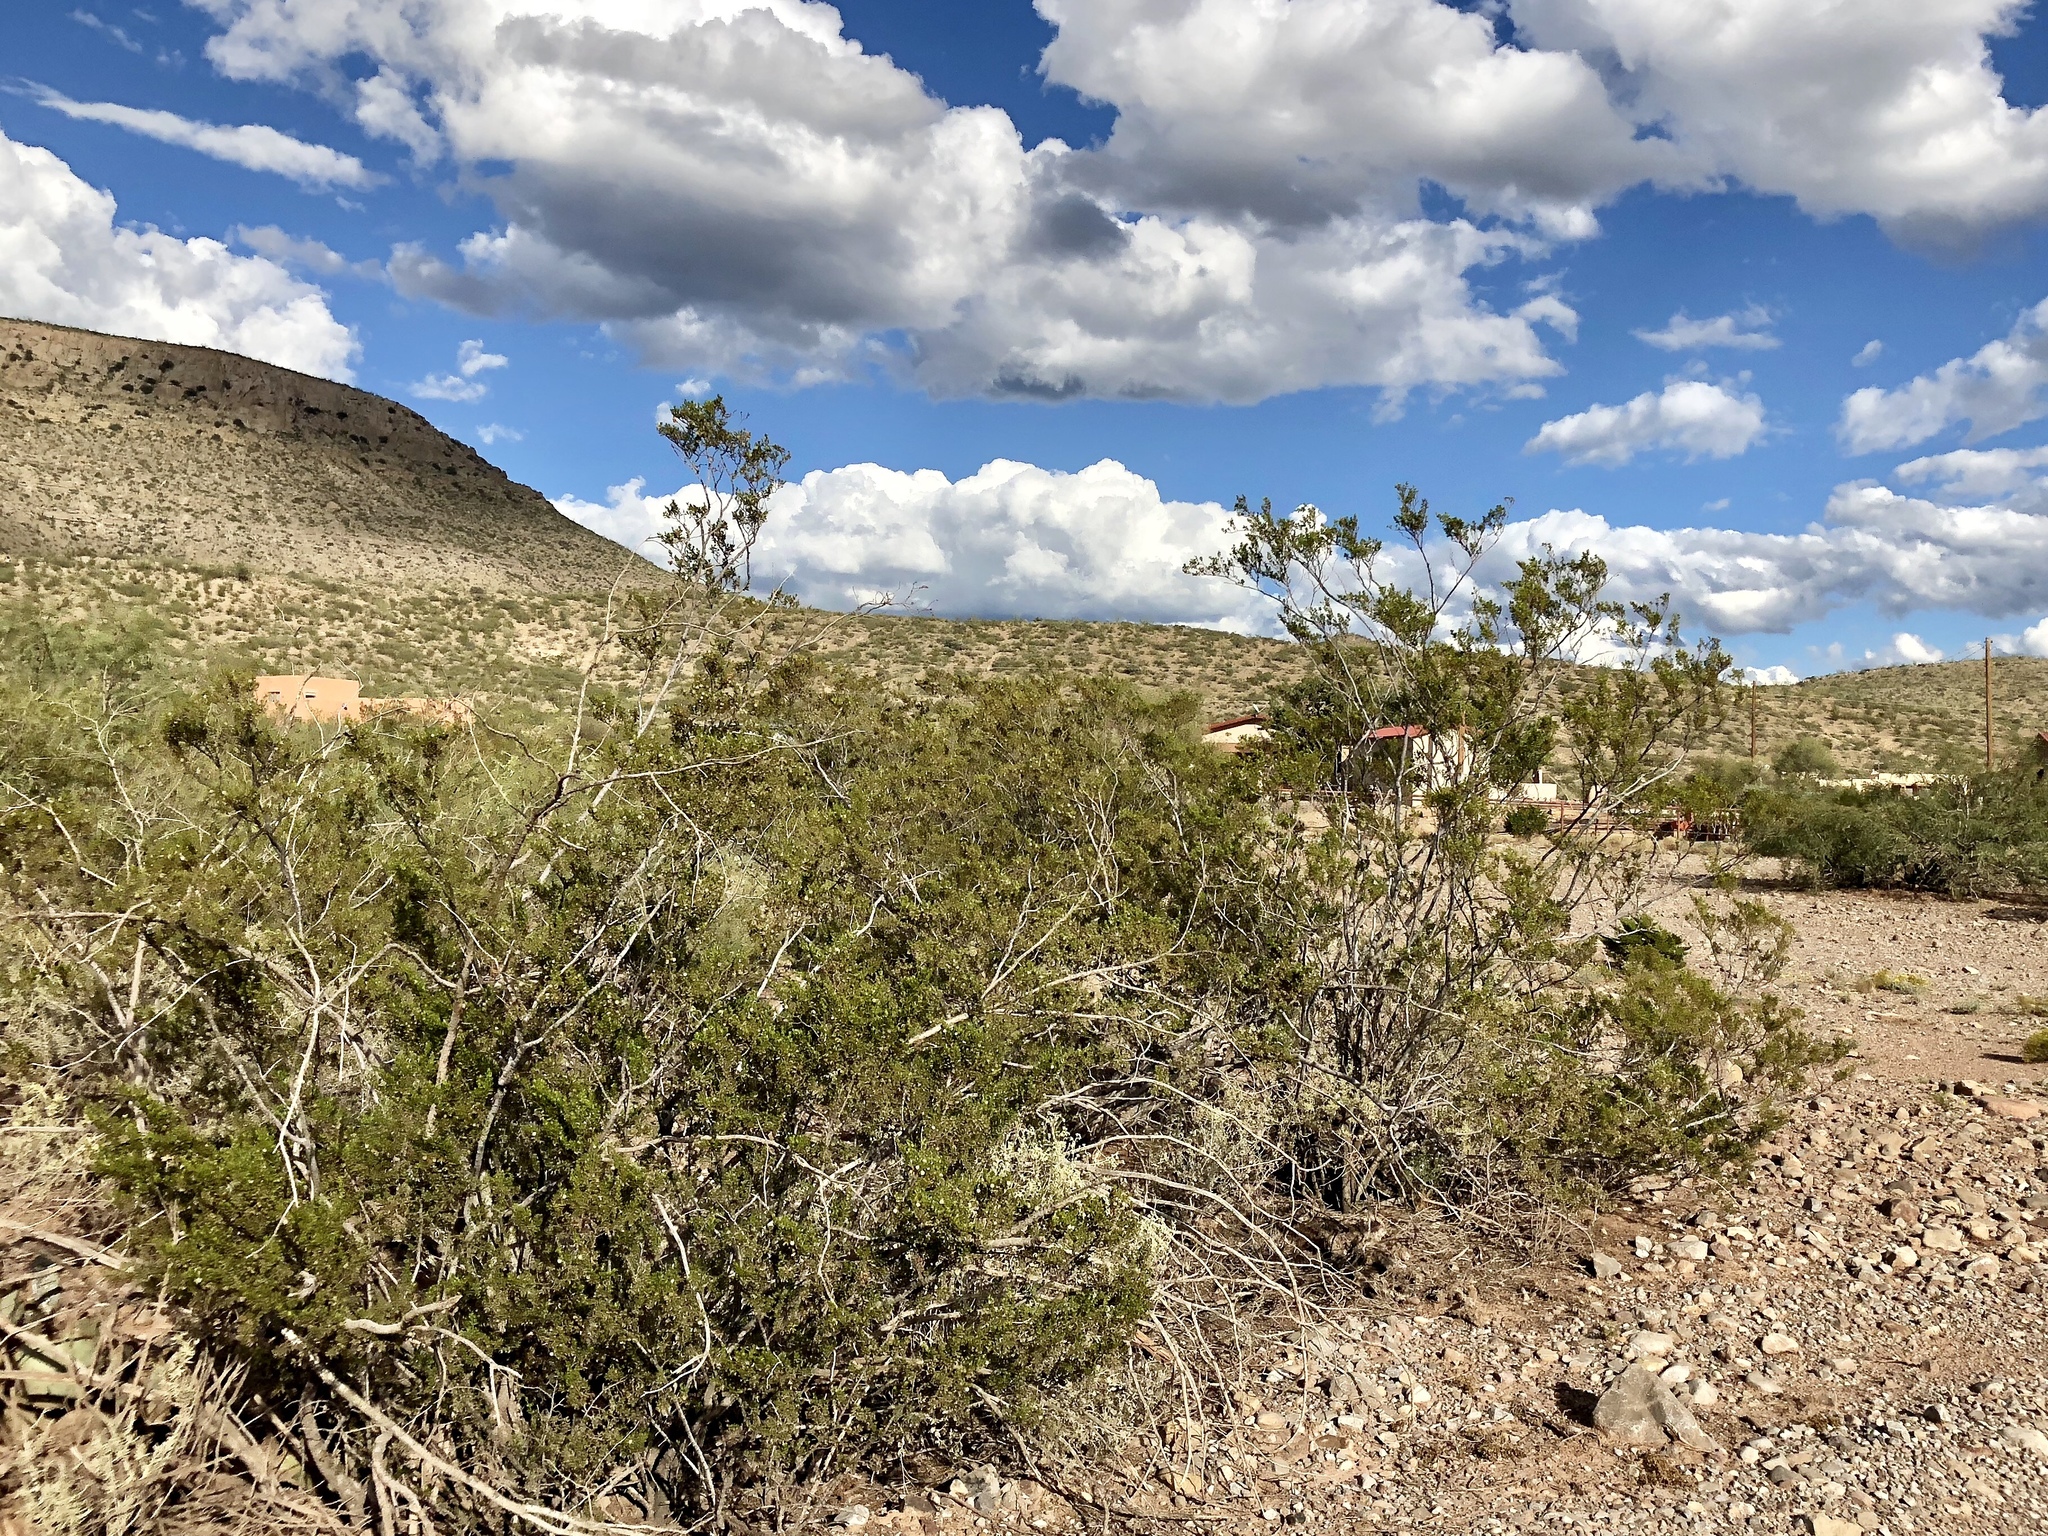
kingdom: Plantae
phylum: Tracheophyta
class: Magnoliopsida
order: Zygophyllales
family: Zygophyllaceae
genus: Larrea
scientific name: Larrea tridentata
